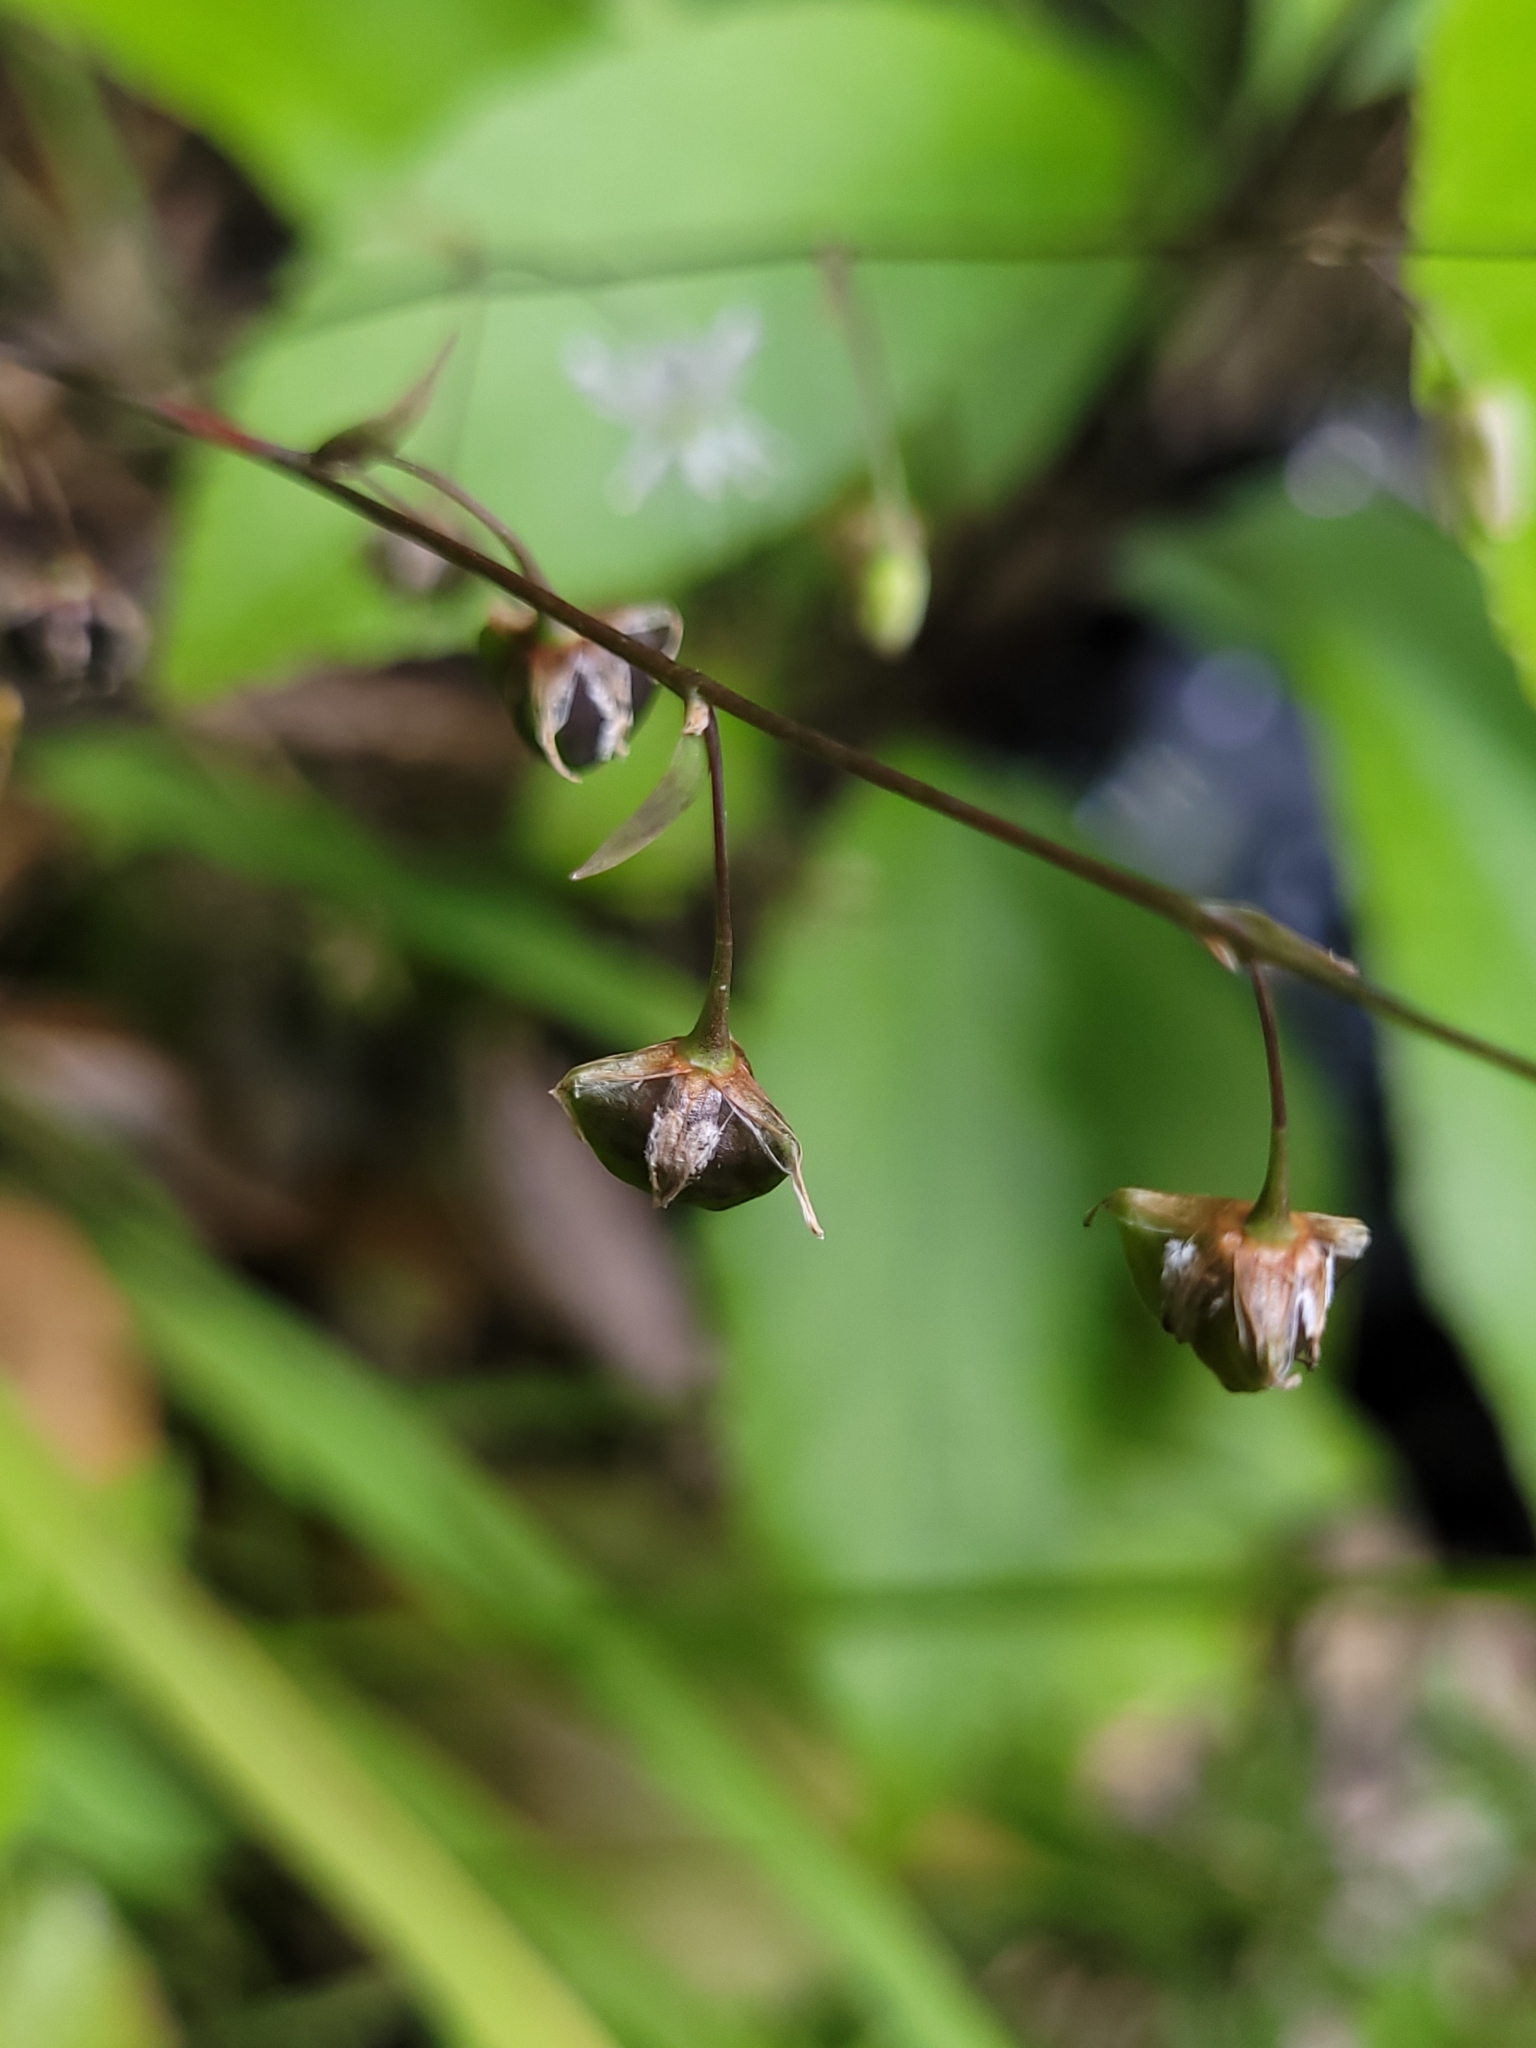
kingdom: Plantae
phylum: Tracheophyta
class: Liliopsida
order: Asparagales
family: Asparagaceae
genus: Arthropodium
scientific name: Arthropodium candidum
